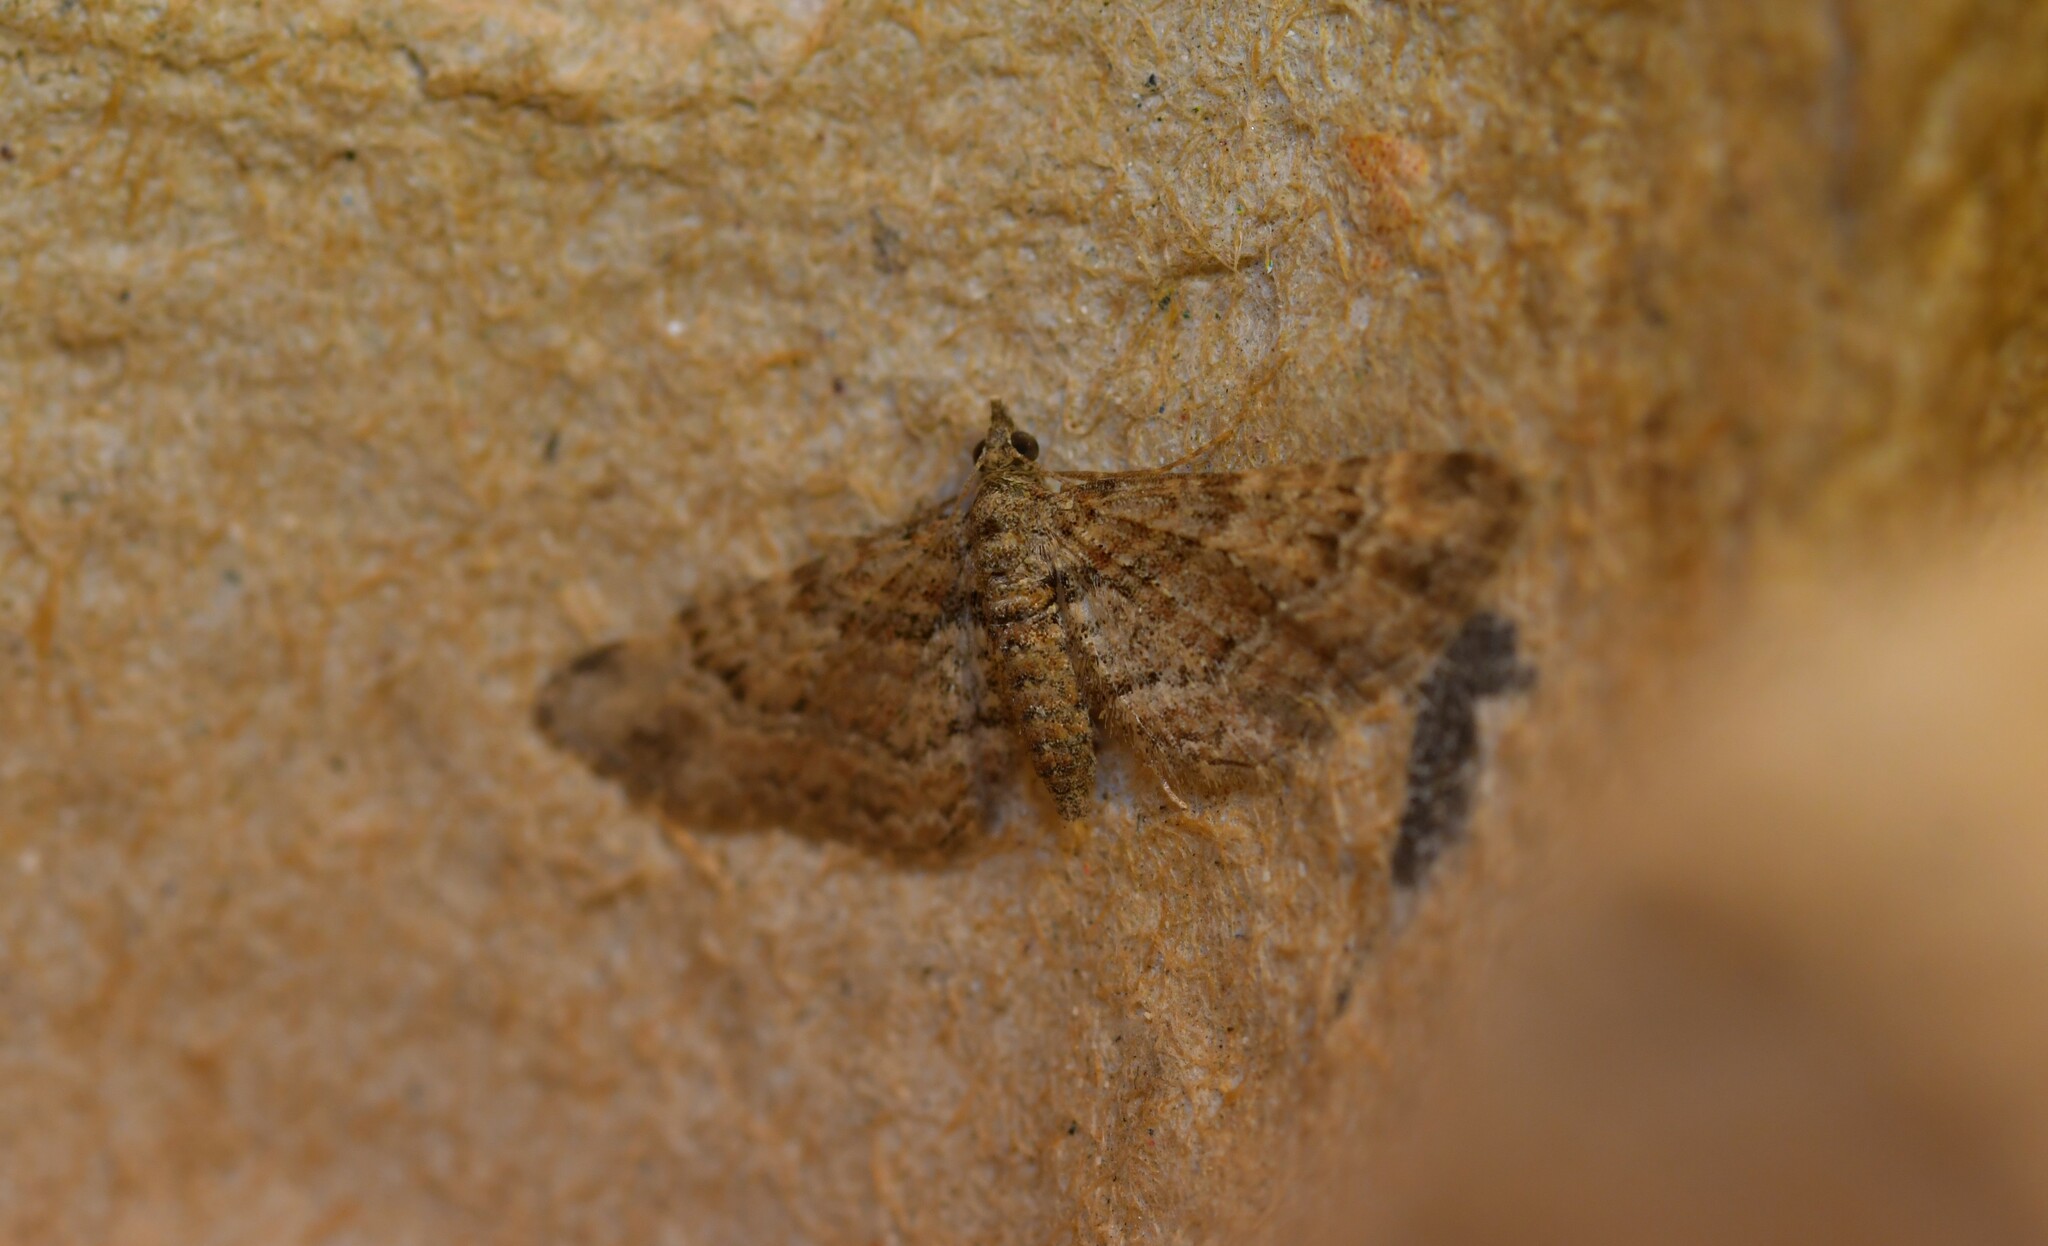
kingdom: Animalia
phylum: Arthropoda
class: Insecta
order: Lepidoptera
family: Geometridae
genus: Gymnoscelis
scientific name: Gymnoscelis rufifasciata
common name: Double-striped pug
